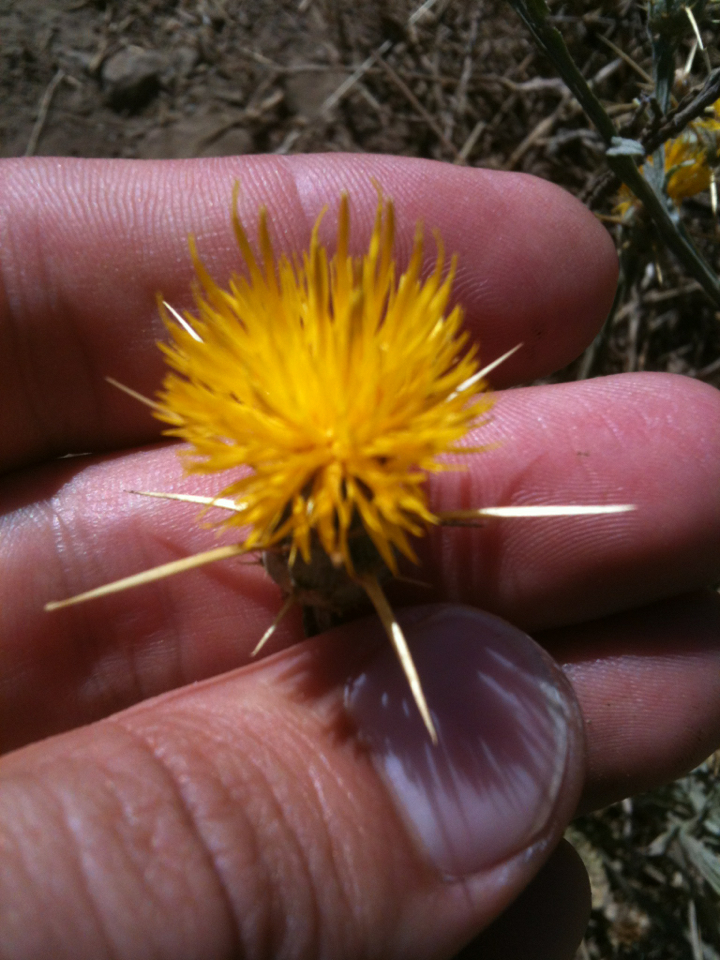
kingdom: Plantae
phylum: Tracheophyta
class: Magnoliopsida
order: Asterales
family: Asteraceae
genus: Centaurea
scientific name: Centaurea solstitialis
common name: Yellow star-thistle
